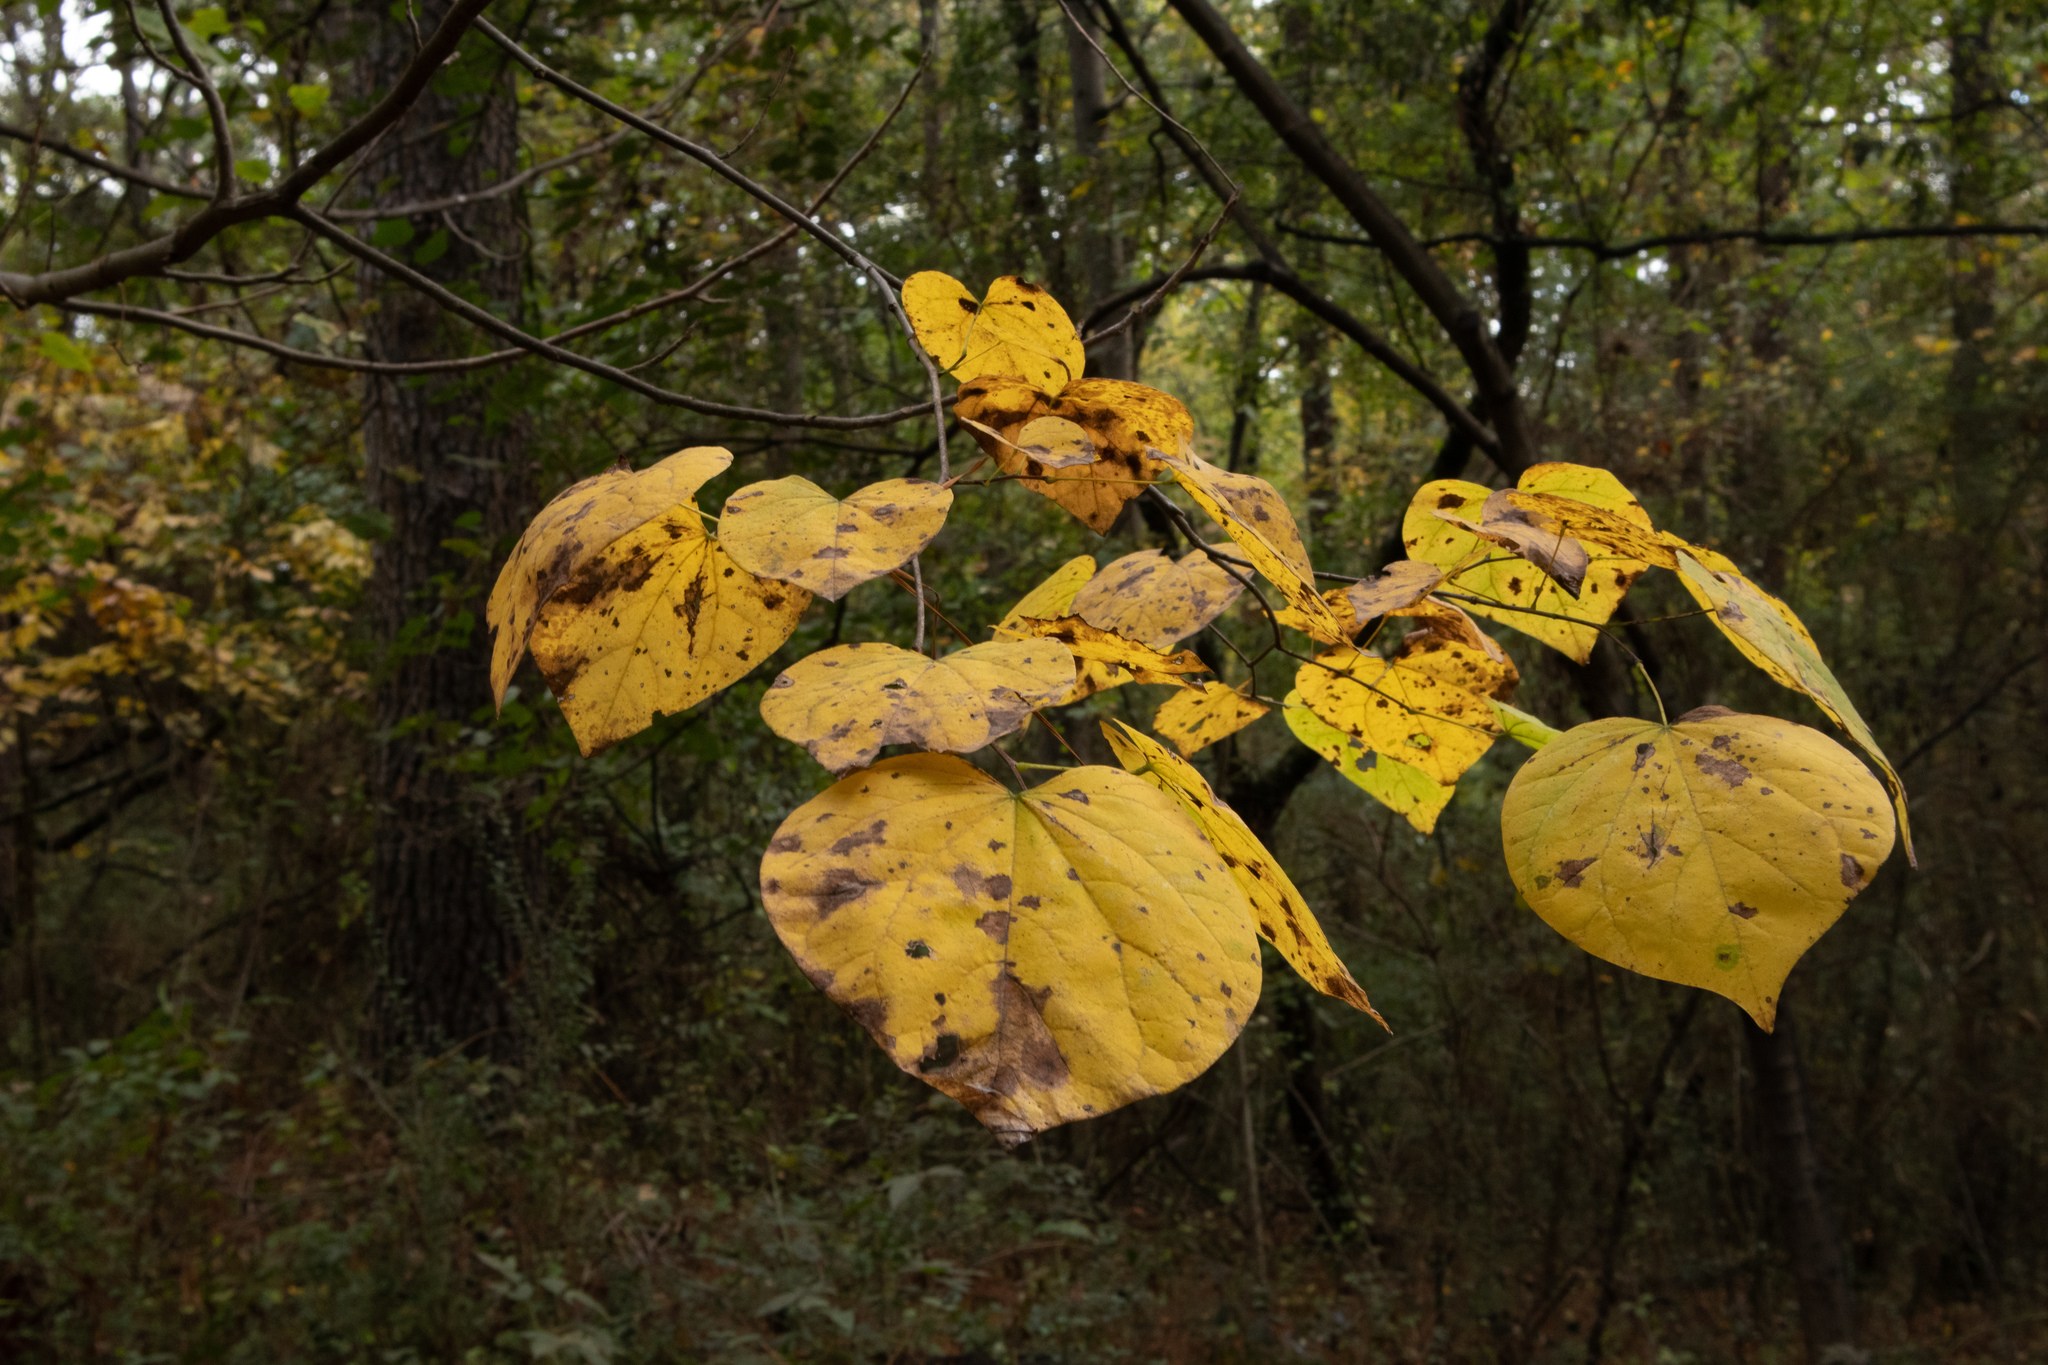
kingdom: Plantae
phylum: Tracheophyta
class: Magnoliopsida
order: Fabales
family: Fabaceae
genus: Cercis
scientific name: Cercis canadensis
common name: Eastern redbud
